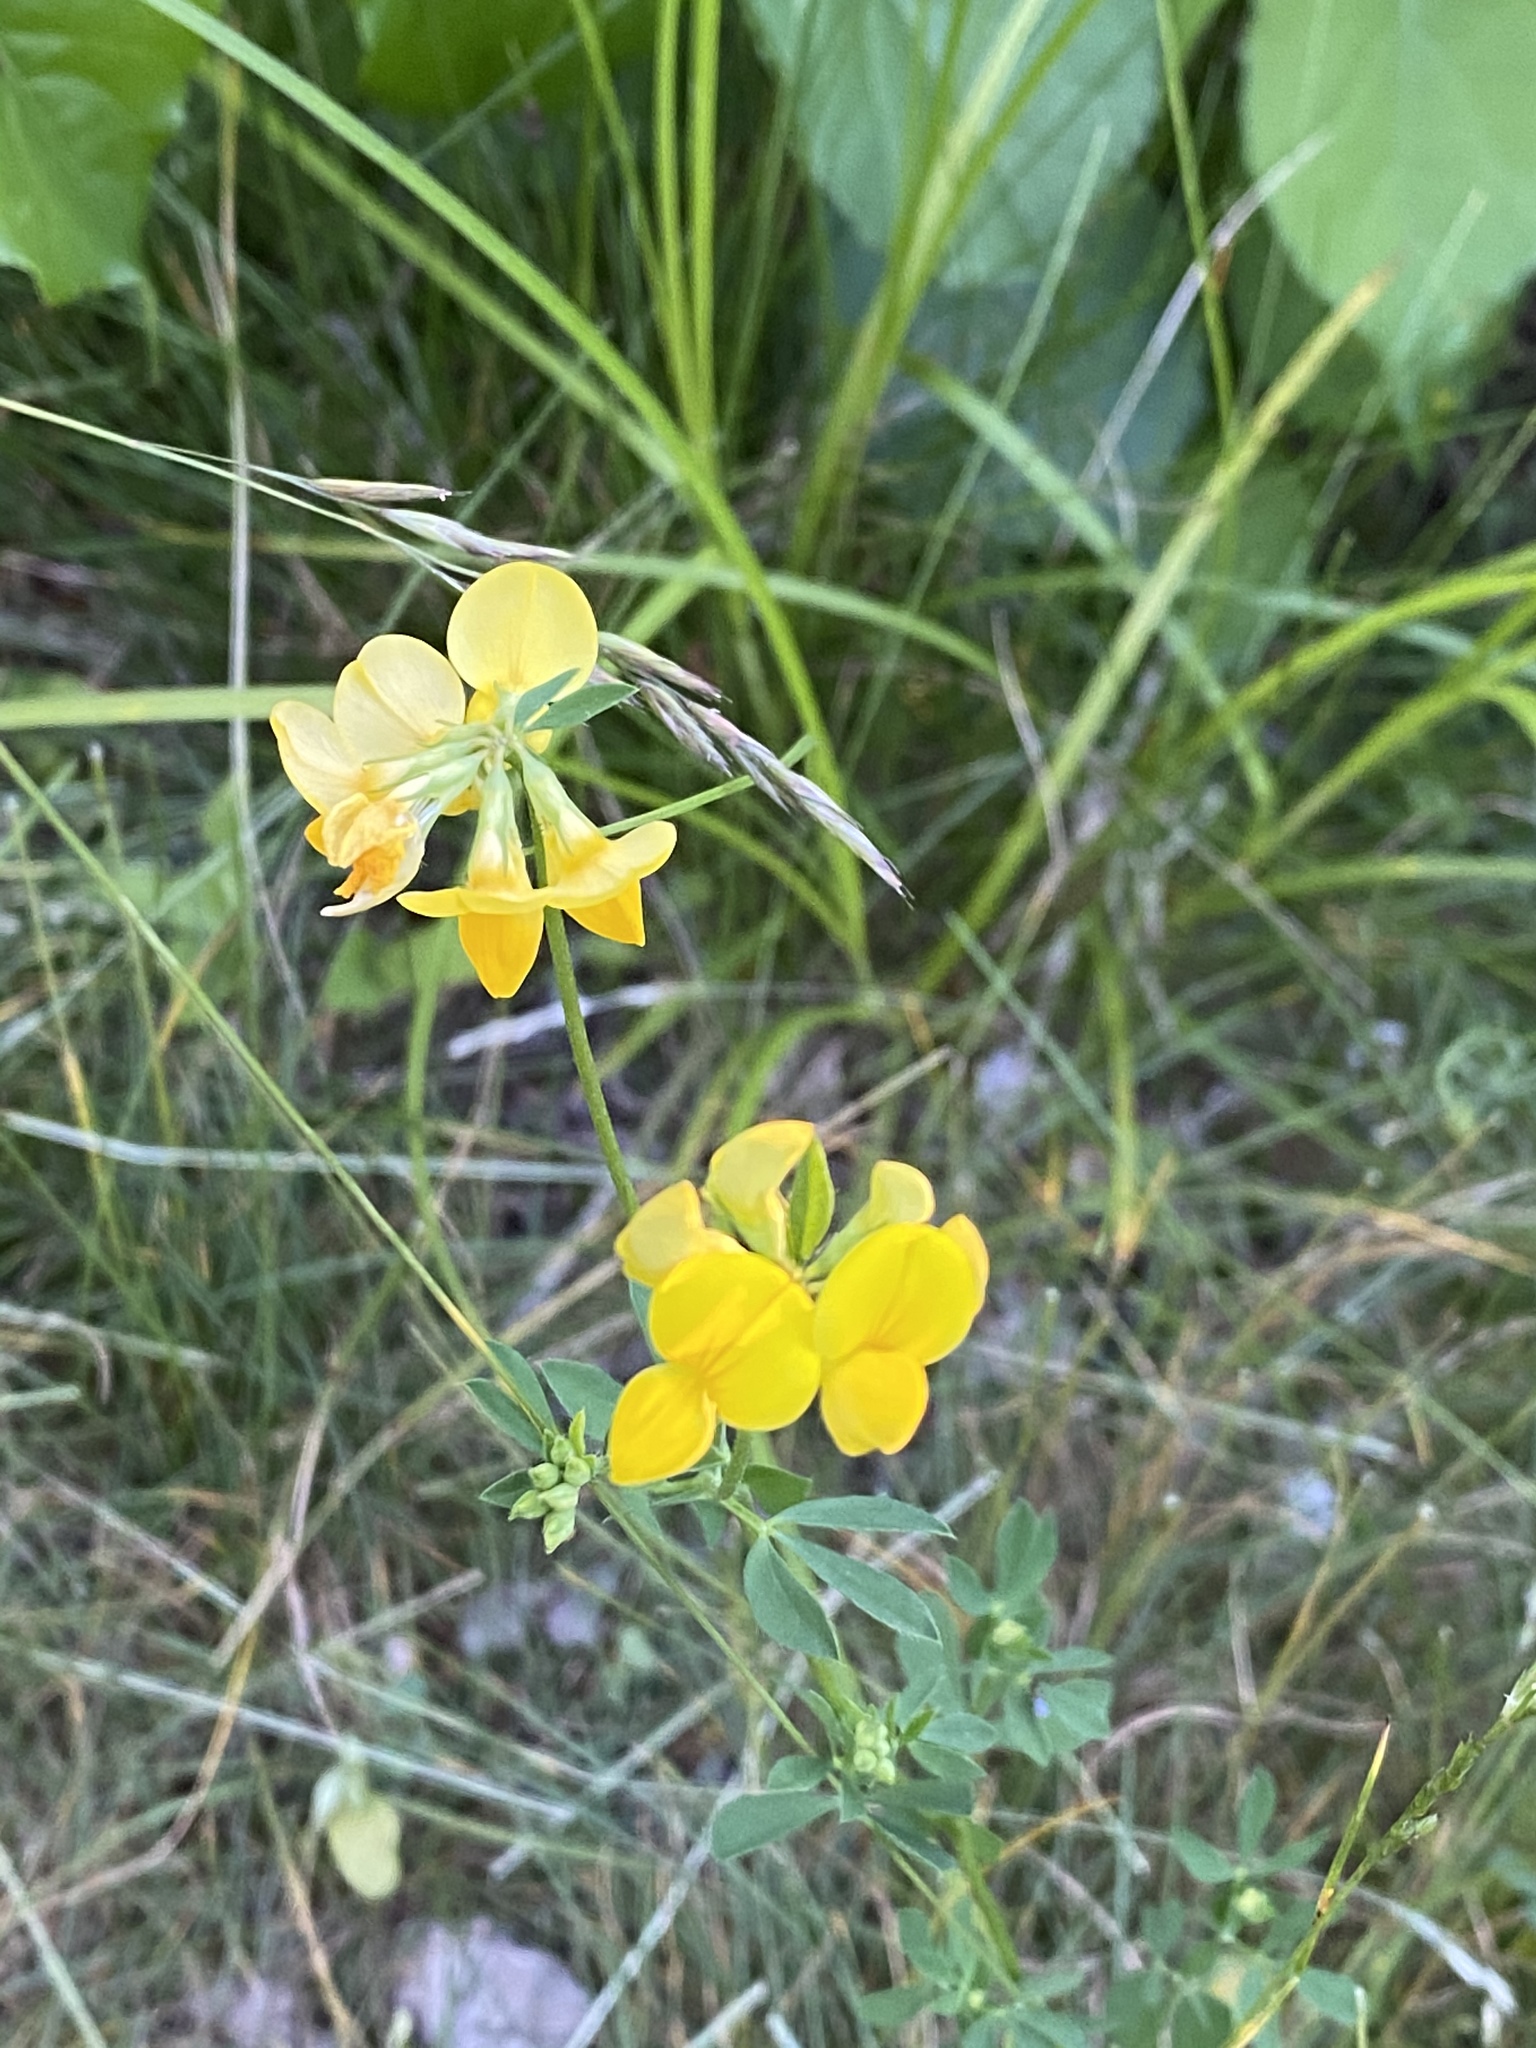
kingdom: Plantae
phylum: Tracheophyta
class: Magnoliopsida
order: Fabales
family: Fabaceae
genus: Lotus
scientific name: Lotus corniculatus
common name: Common bird's-foot-trefoil
